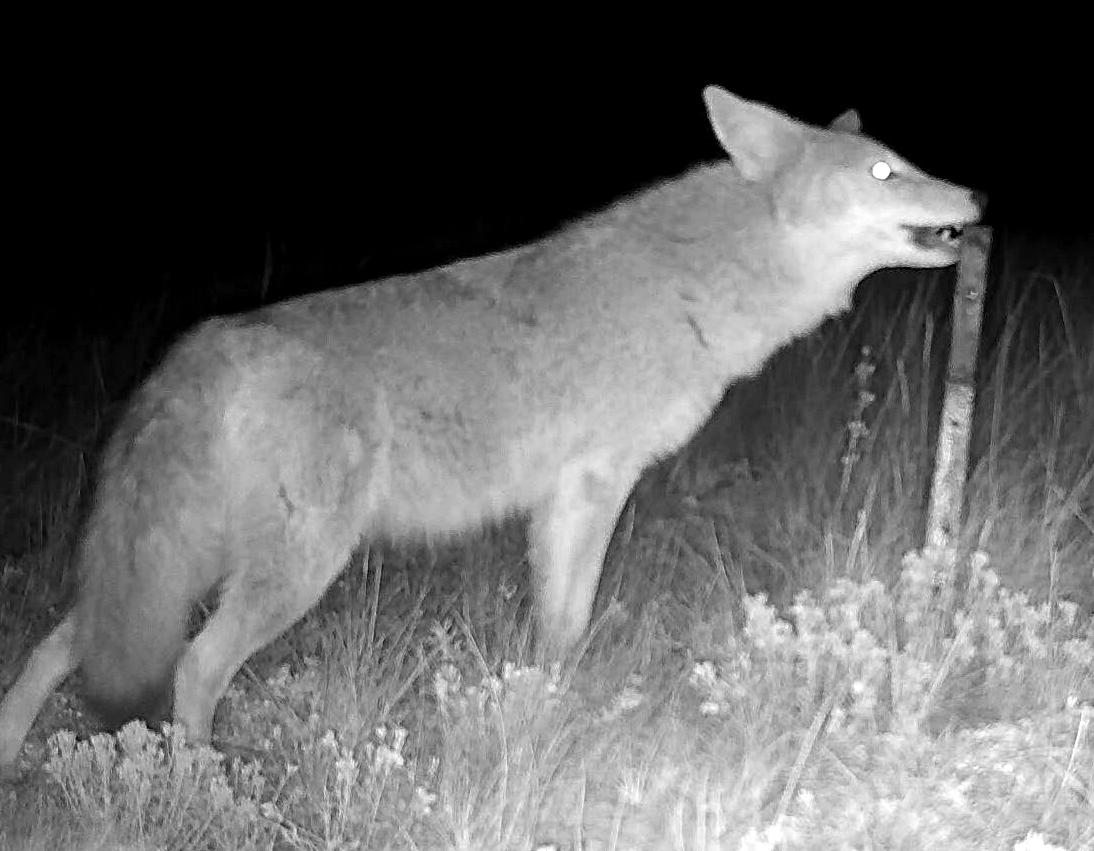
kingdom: Animalia
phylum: Chordata
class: Mammalia
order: Carnivora
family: Canidae
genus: Canis
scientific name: Canis latrans
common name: Coyote
